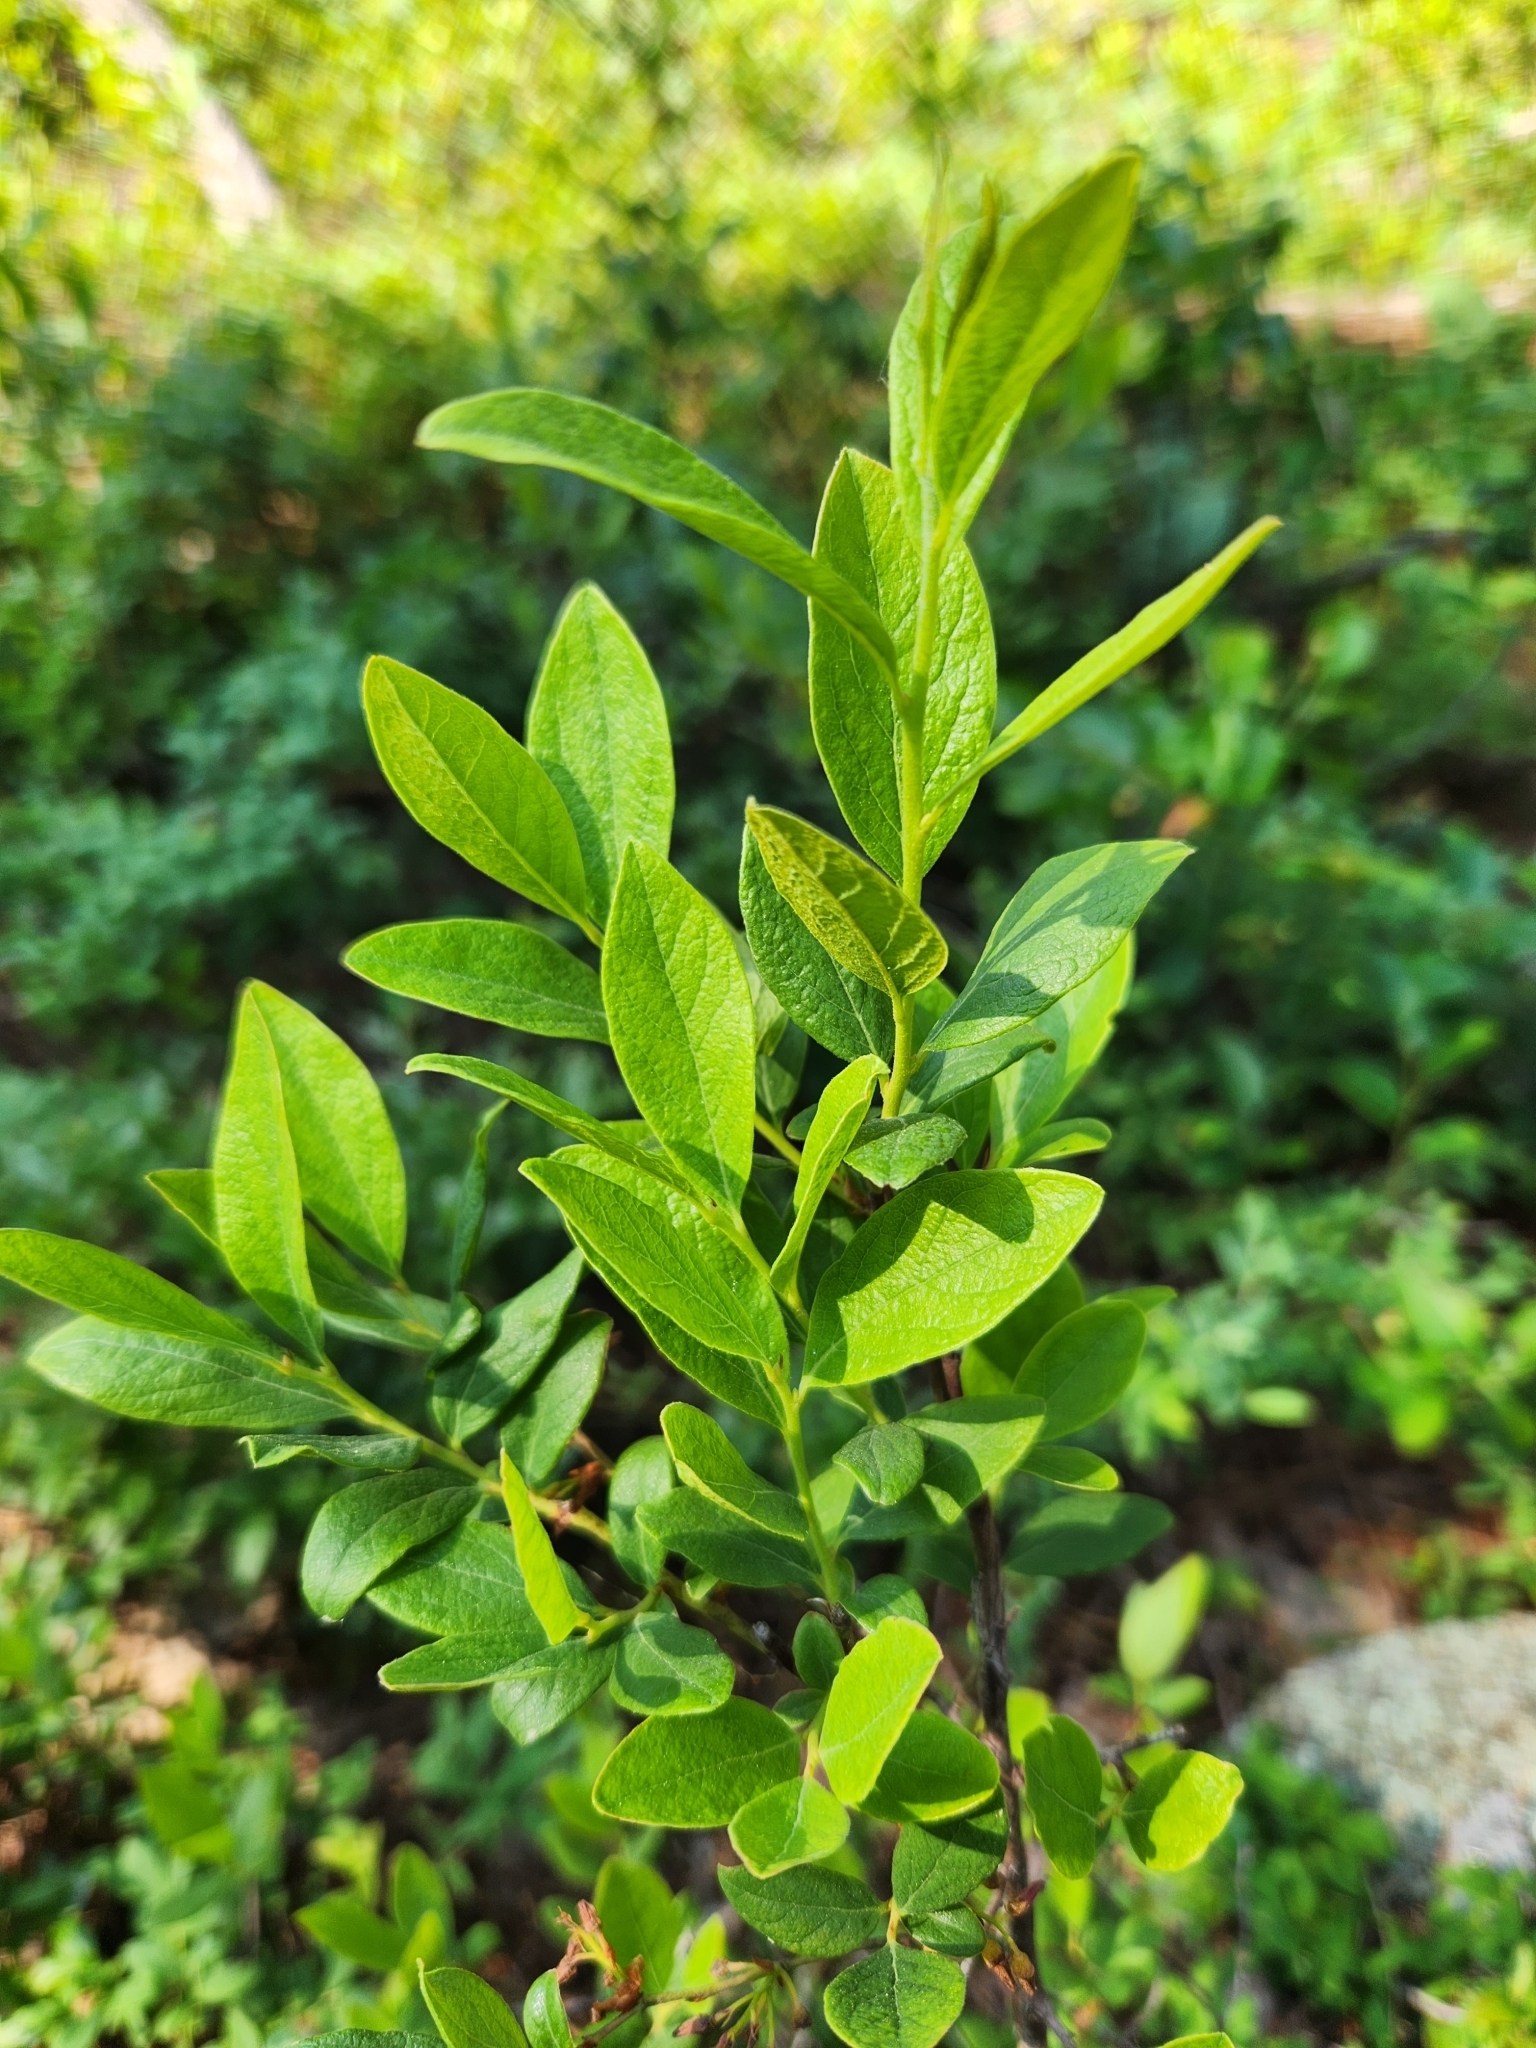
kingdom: Plantae
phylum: Tracheophyta
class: Magnoliopsida
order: Ericales
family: Ericaceae
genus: Gaylussacia
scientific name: Gaylussacia baccata
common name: Black huckleberry
